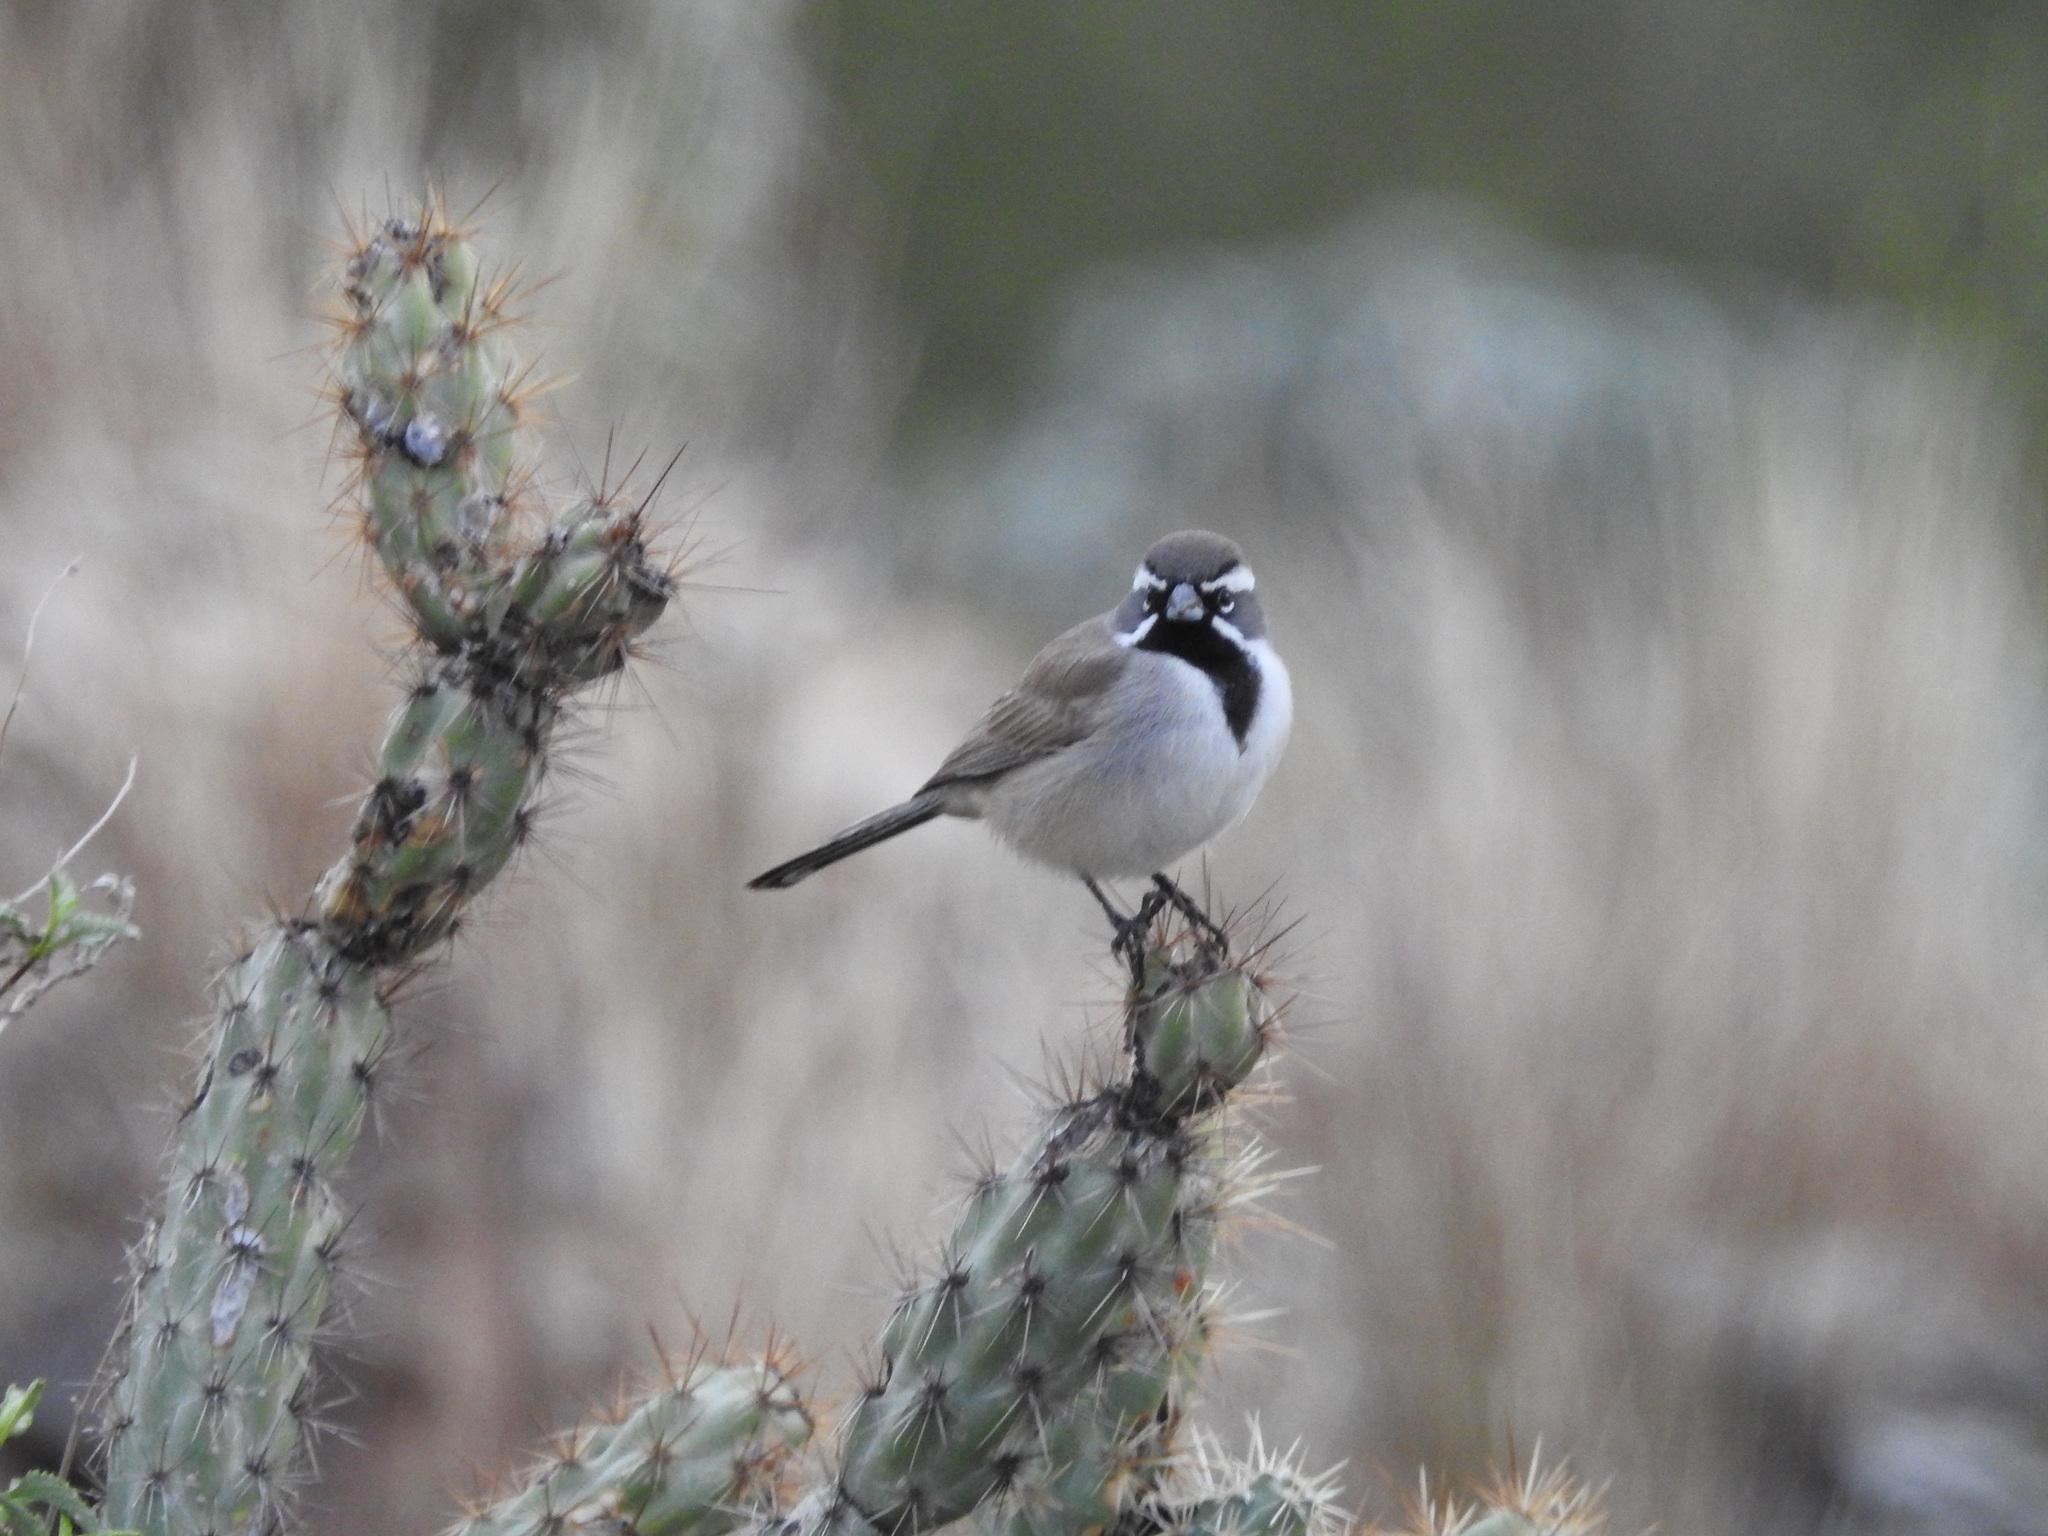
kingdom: Animalia
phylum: Chordata
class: Aves
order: Passeriformes
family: Passerellidae
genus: Amphispiza
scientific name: Amphispiza bilineata
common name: Black-throated sparrow
